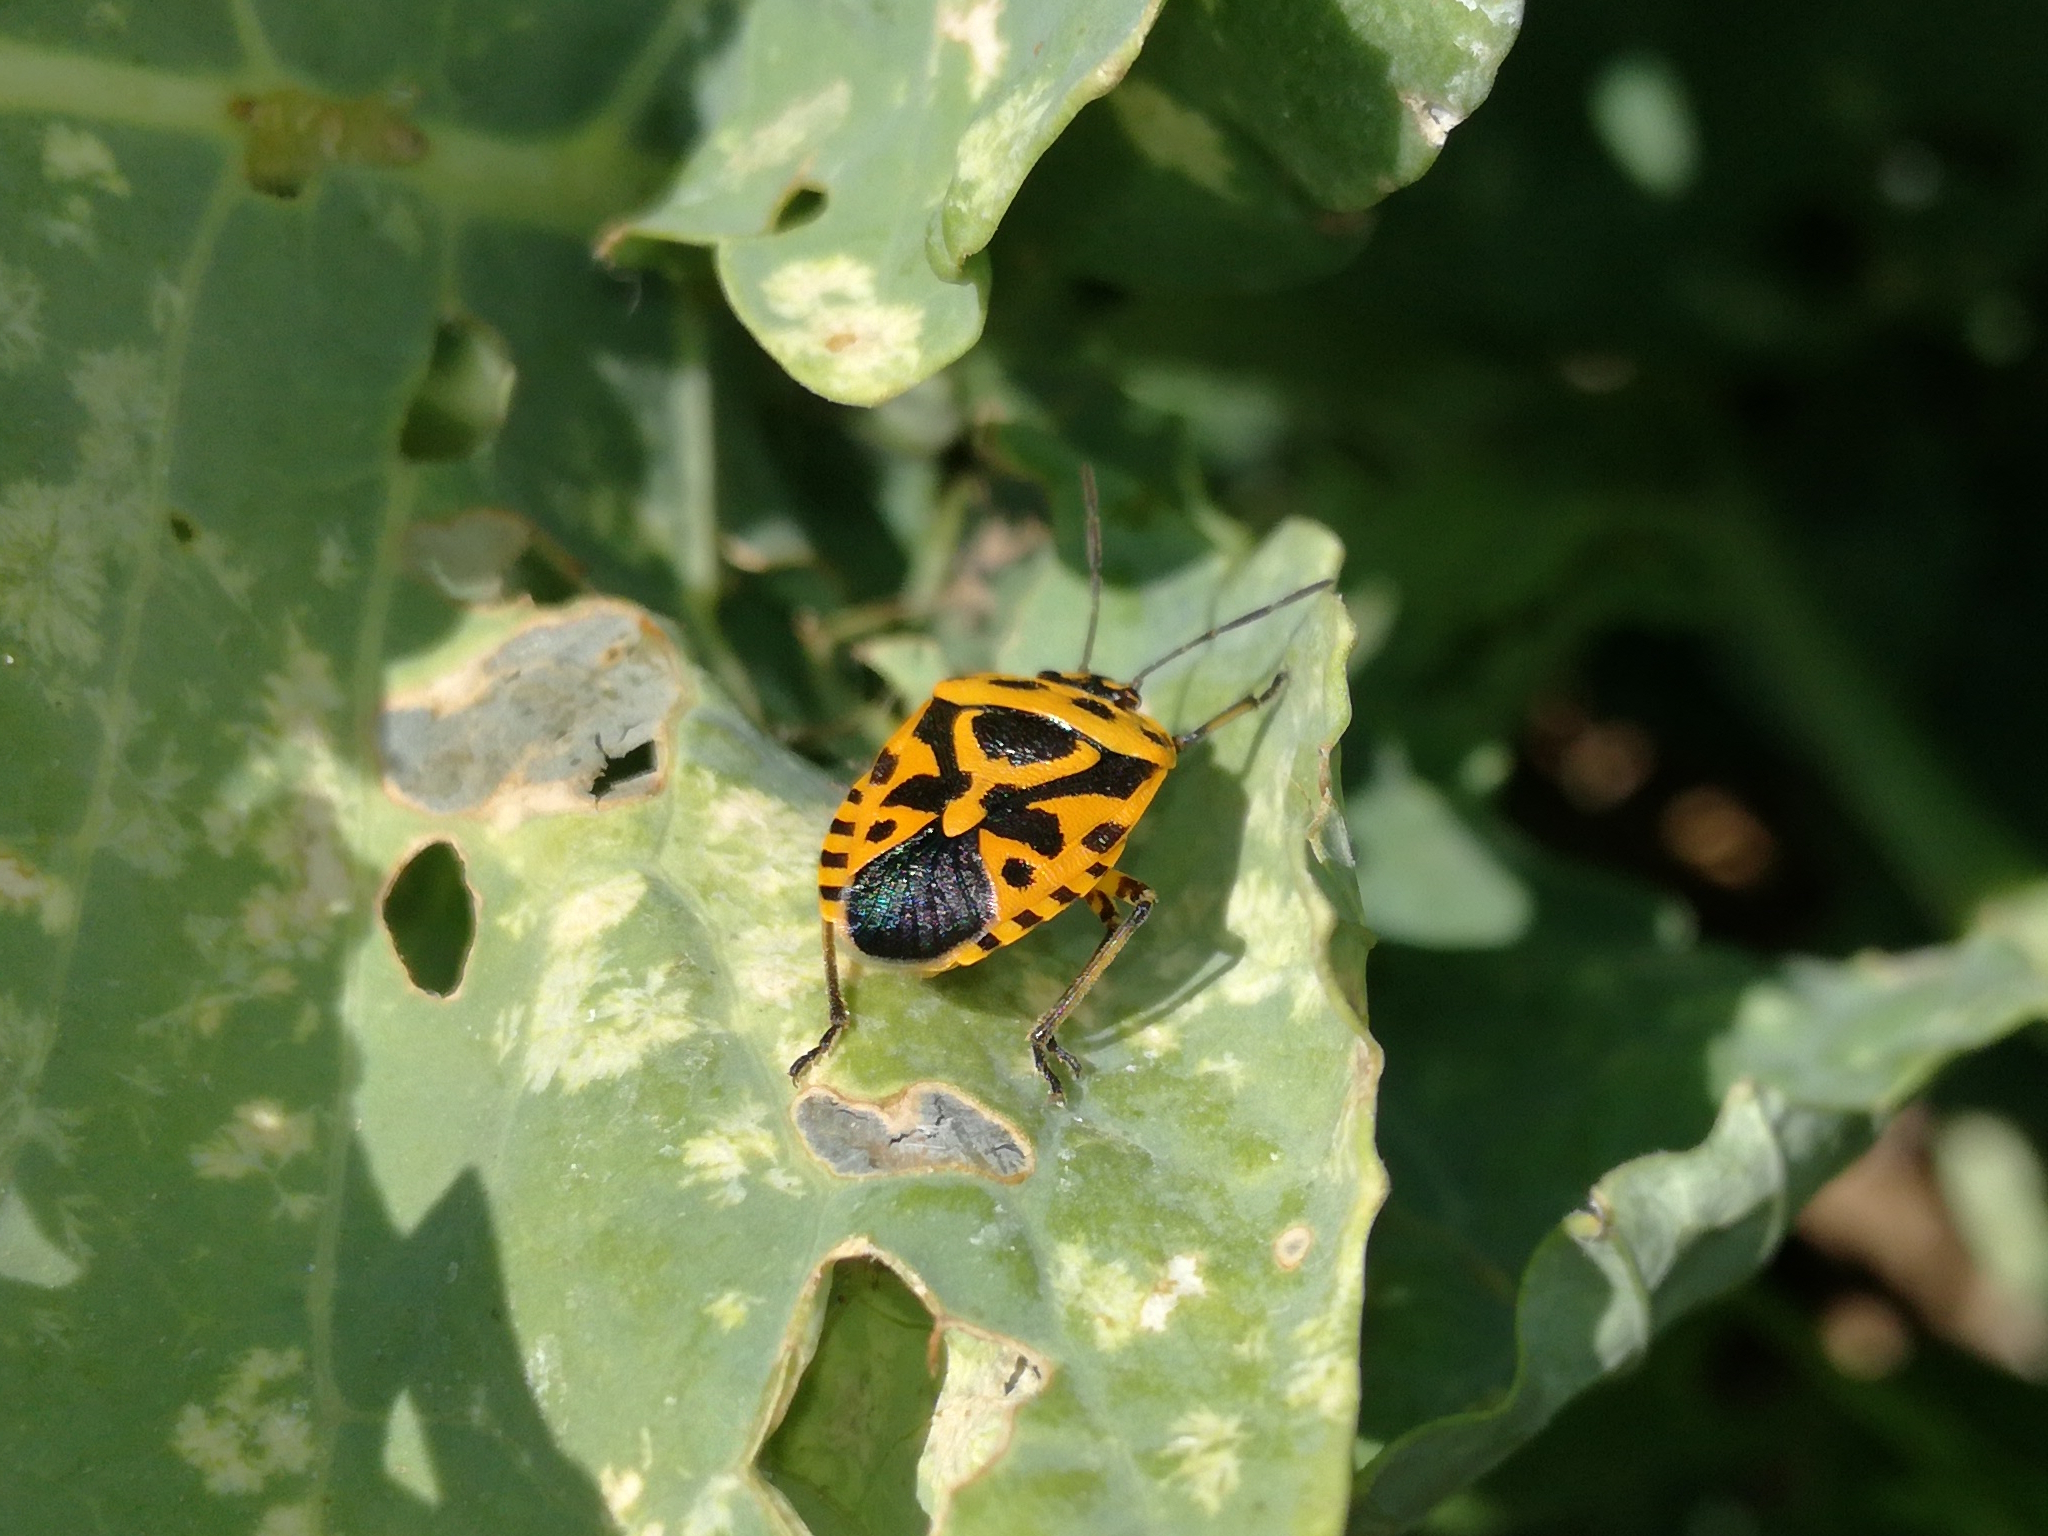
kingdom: Animalia
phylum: Arthropoda
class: Insecta
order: Hemiptera
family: Pentatomidae
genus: Eurydema
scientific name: Eurydema ventralis
